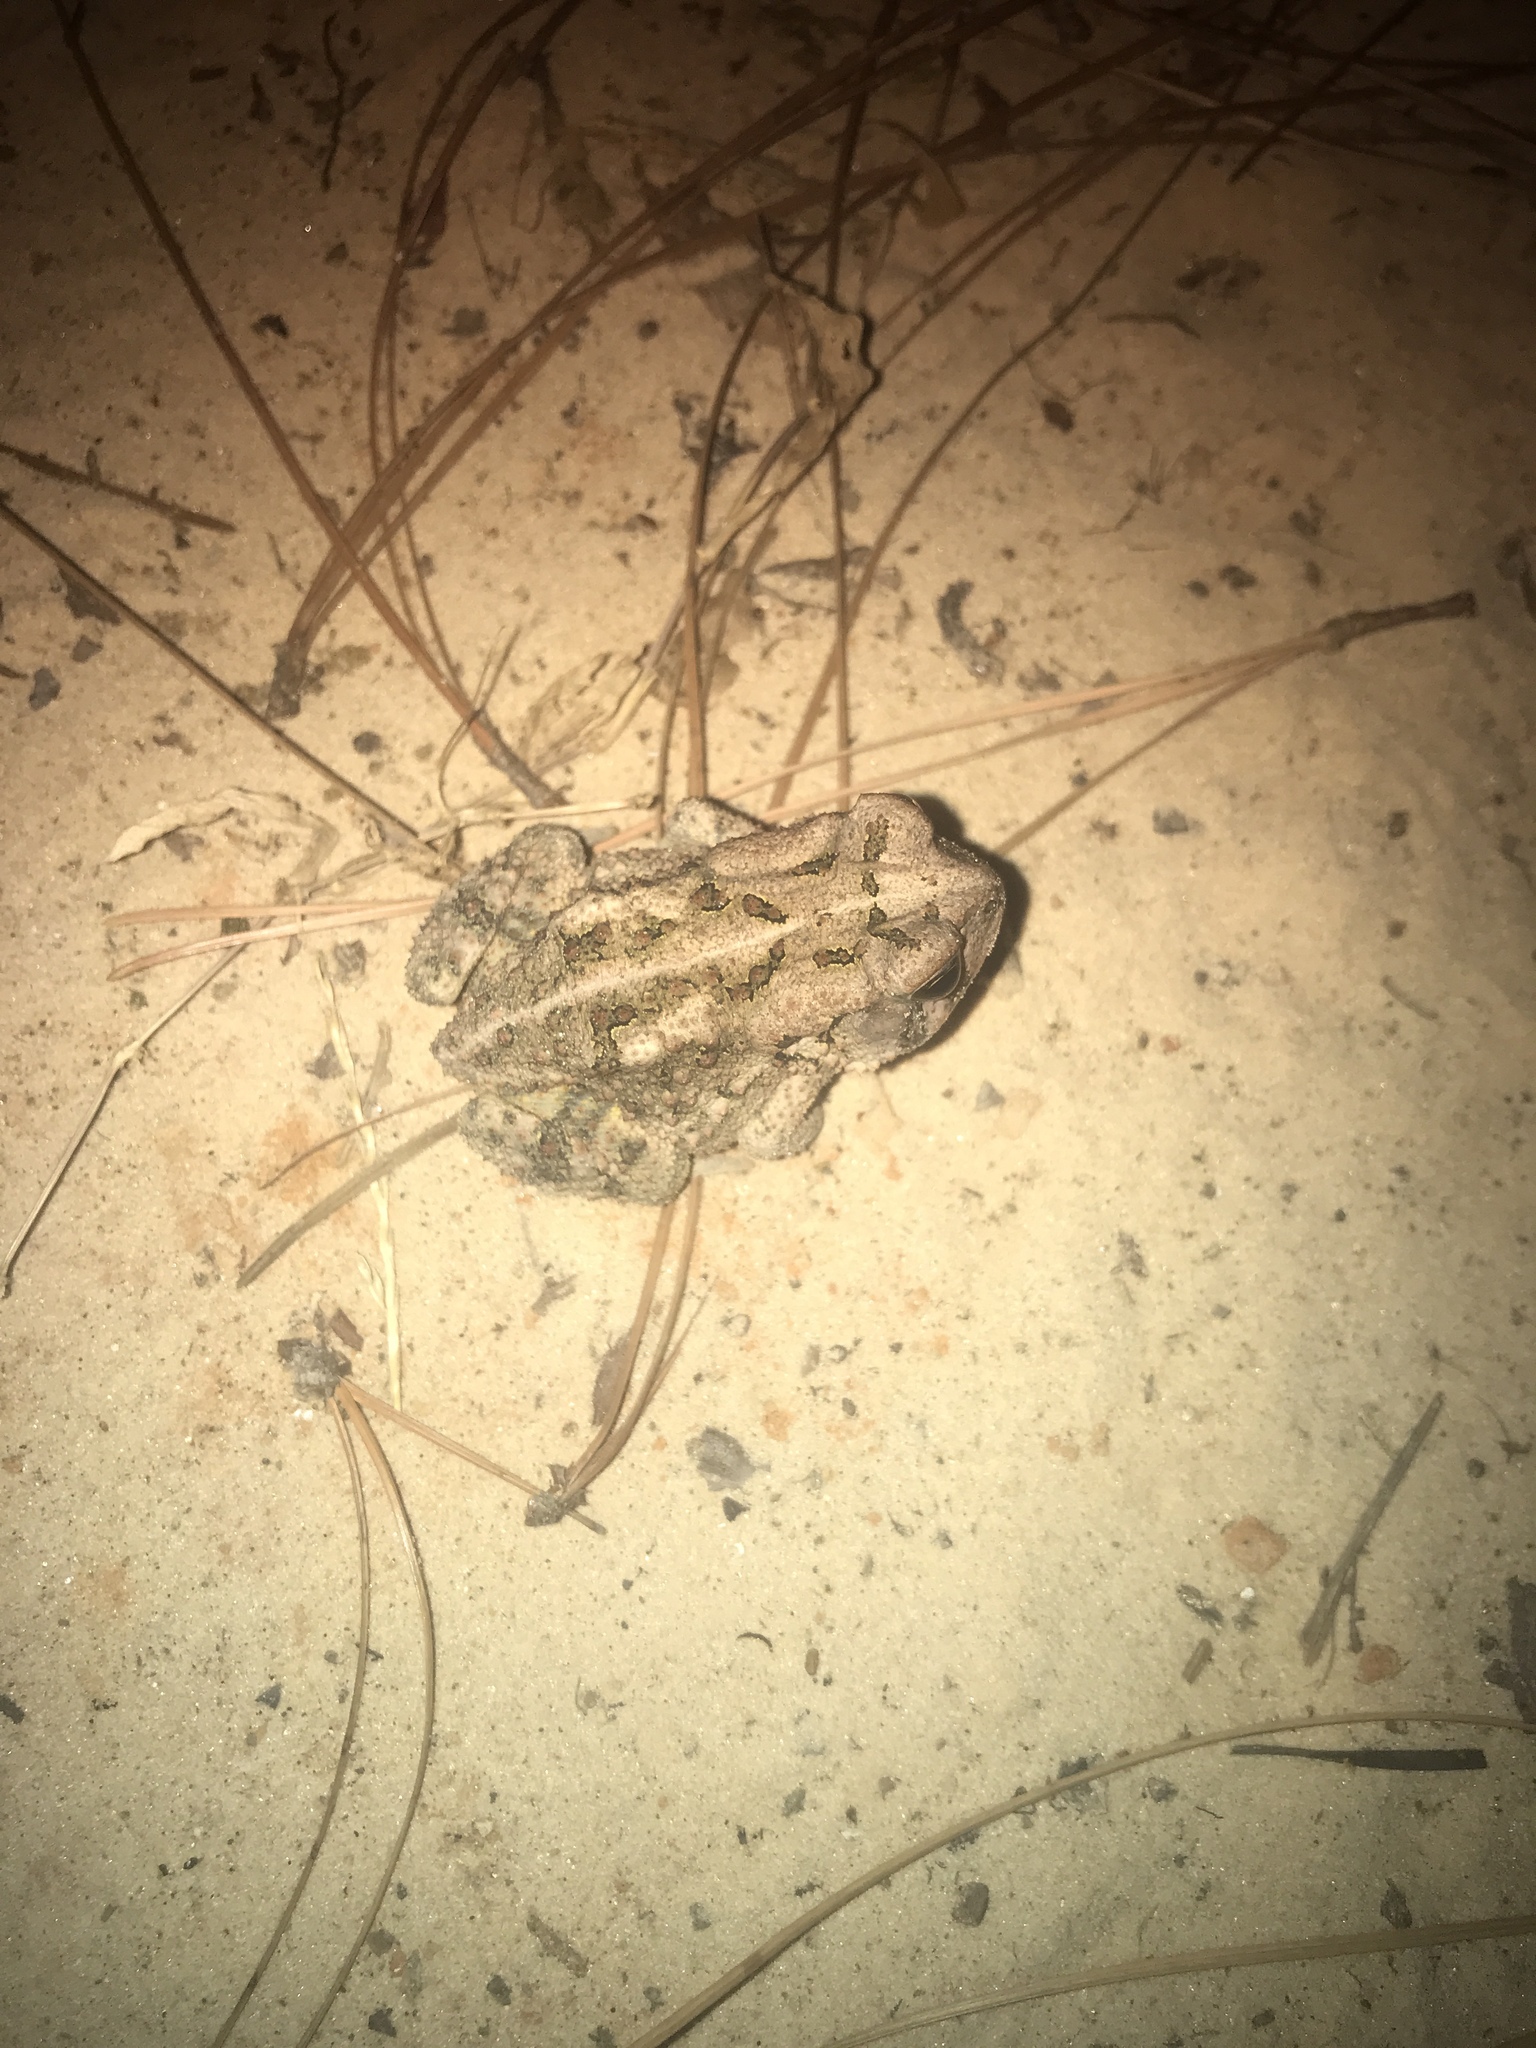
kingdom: Animalia
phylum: Chordata
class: Amphibia
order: Anura
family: Bufonidae
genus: Anaxyrus
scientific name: Anaxyrus fowleri
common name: Fowler's toad
